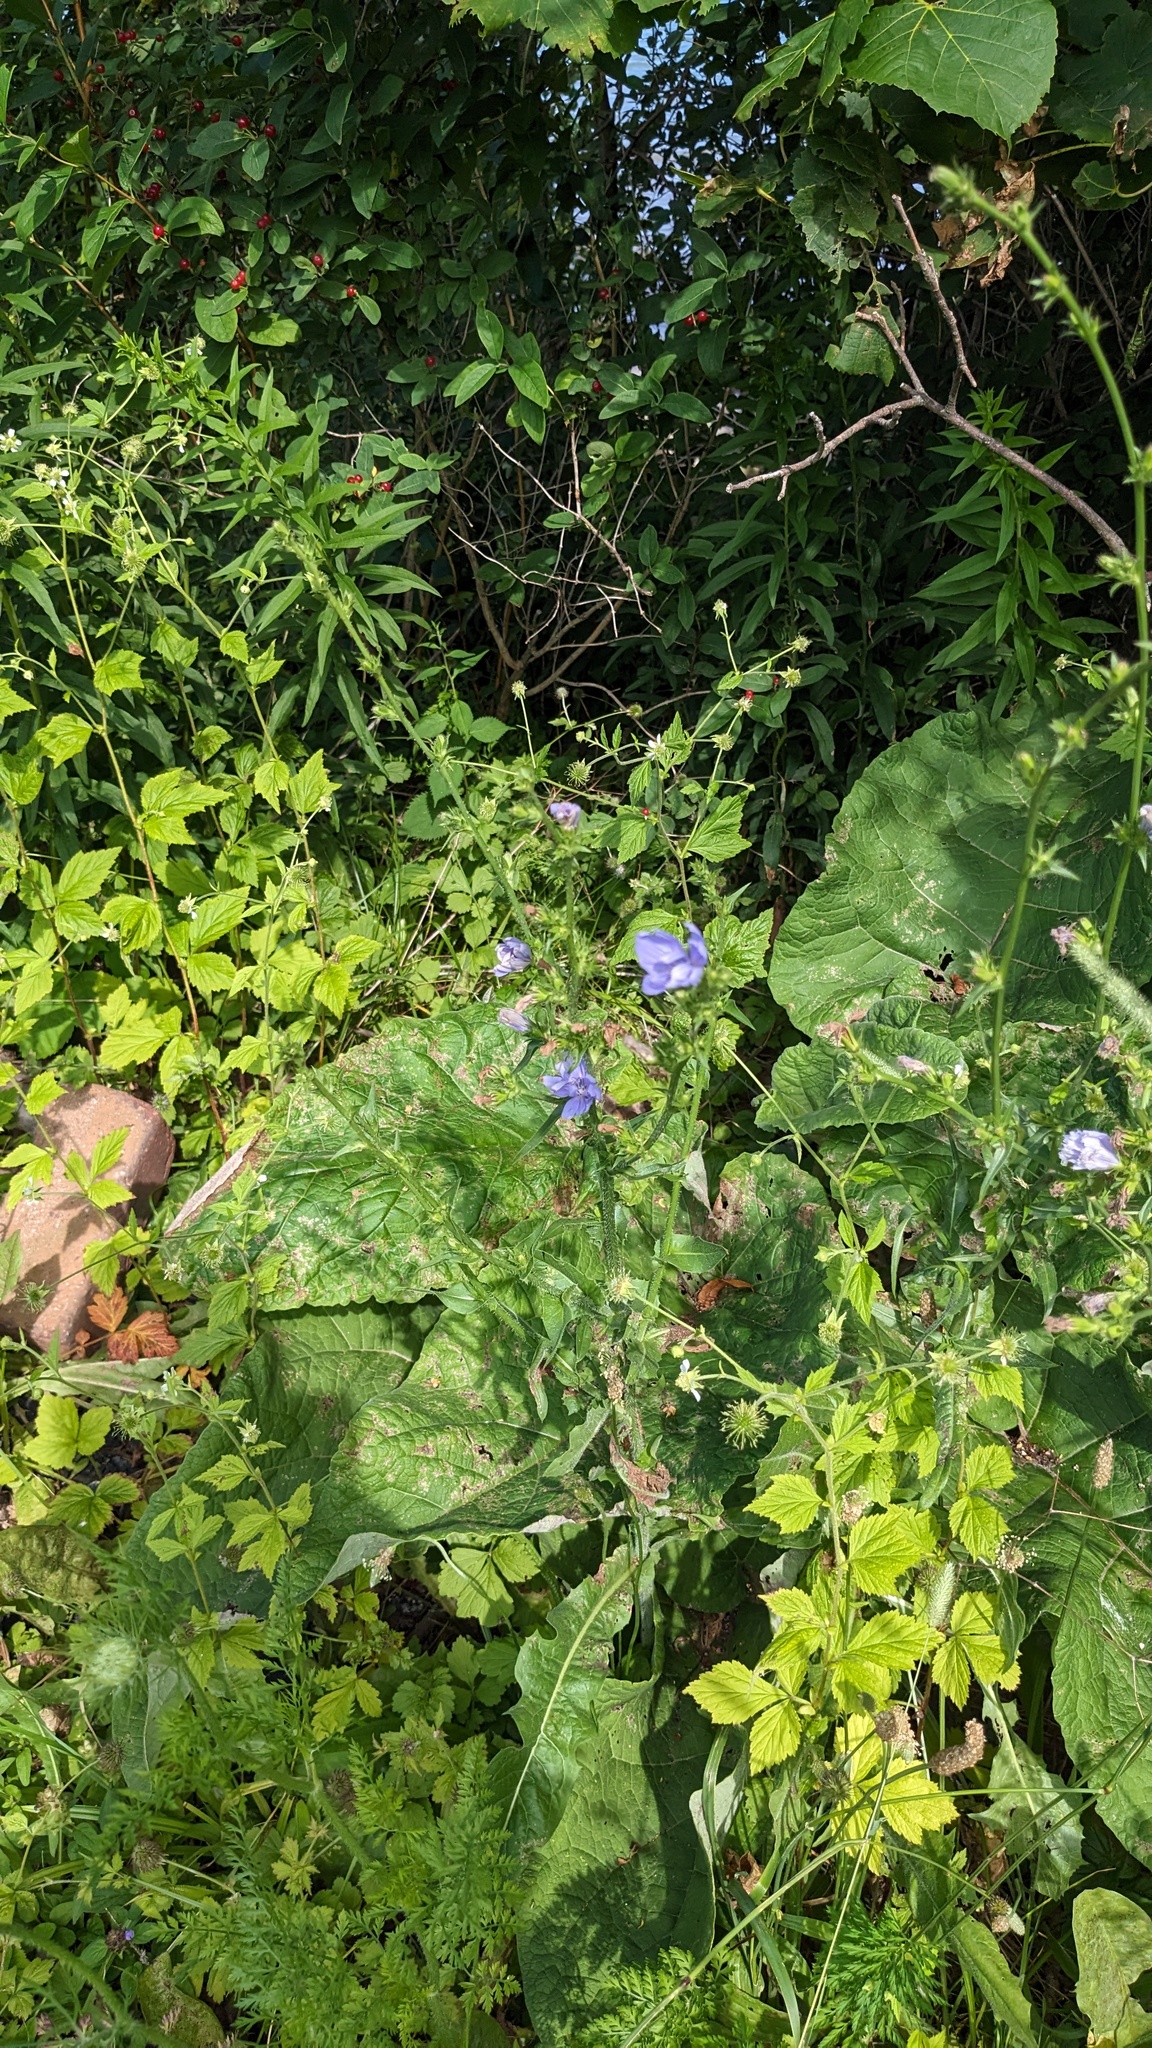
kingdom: Plantae
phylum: Tracheophyta
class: Magnoliopsida
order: Asterales
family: Asteraceae
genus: Cichorium
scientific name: Cichorium intybus
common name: Chicory
